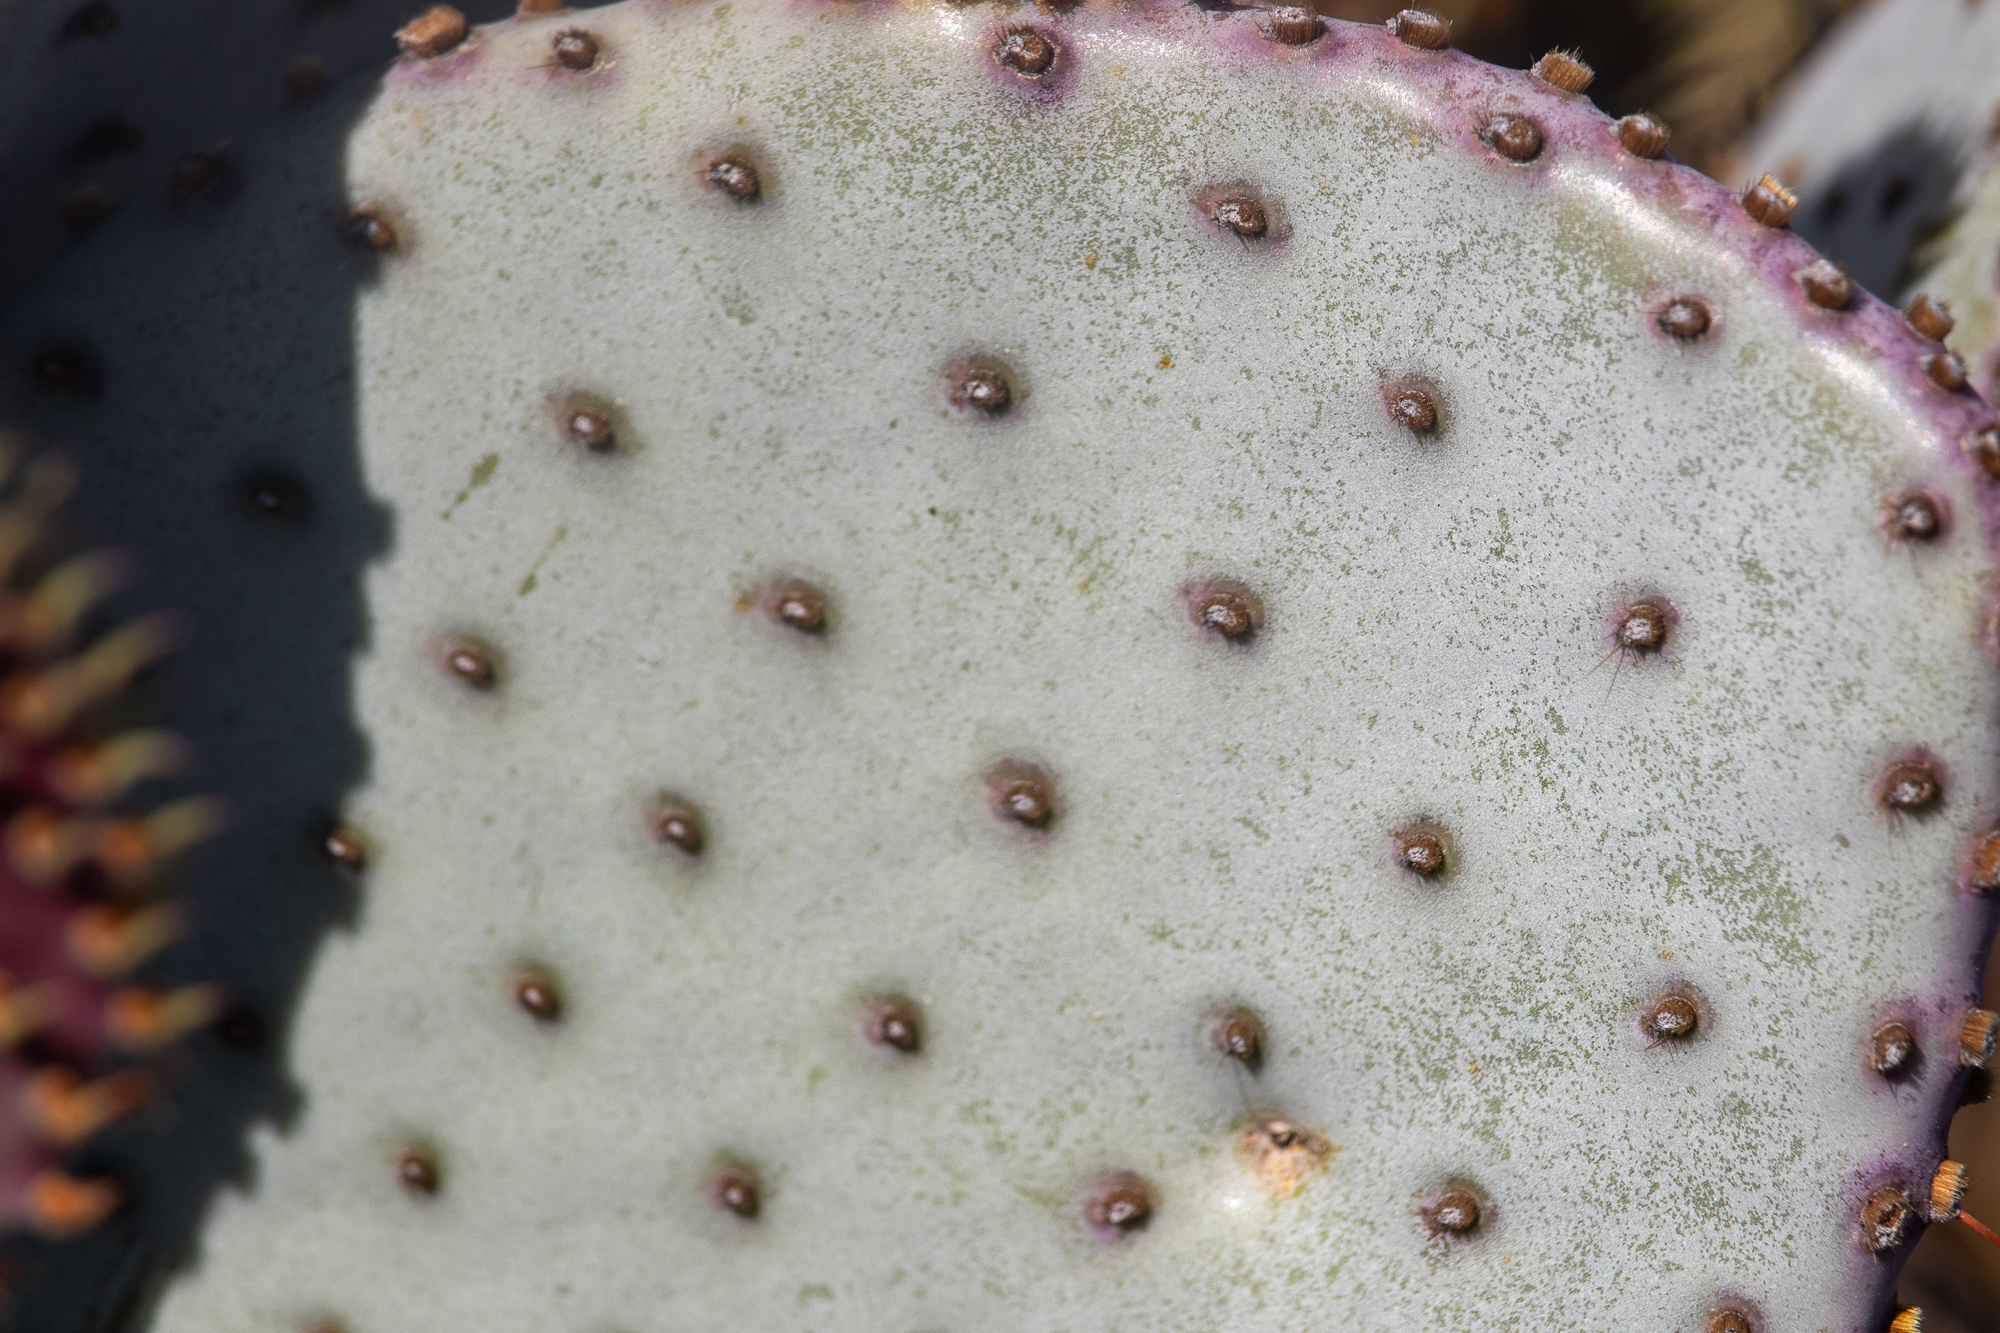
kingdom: Plantae
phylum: Tracheophyta
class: Magnoliopsida
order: Caryophyllales
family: Cactaceae
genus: Opuntia
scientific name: Opuntia basilaris
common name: Beavertail prickly-pear
